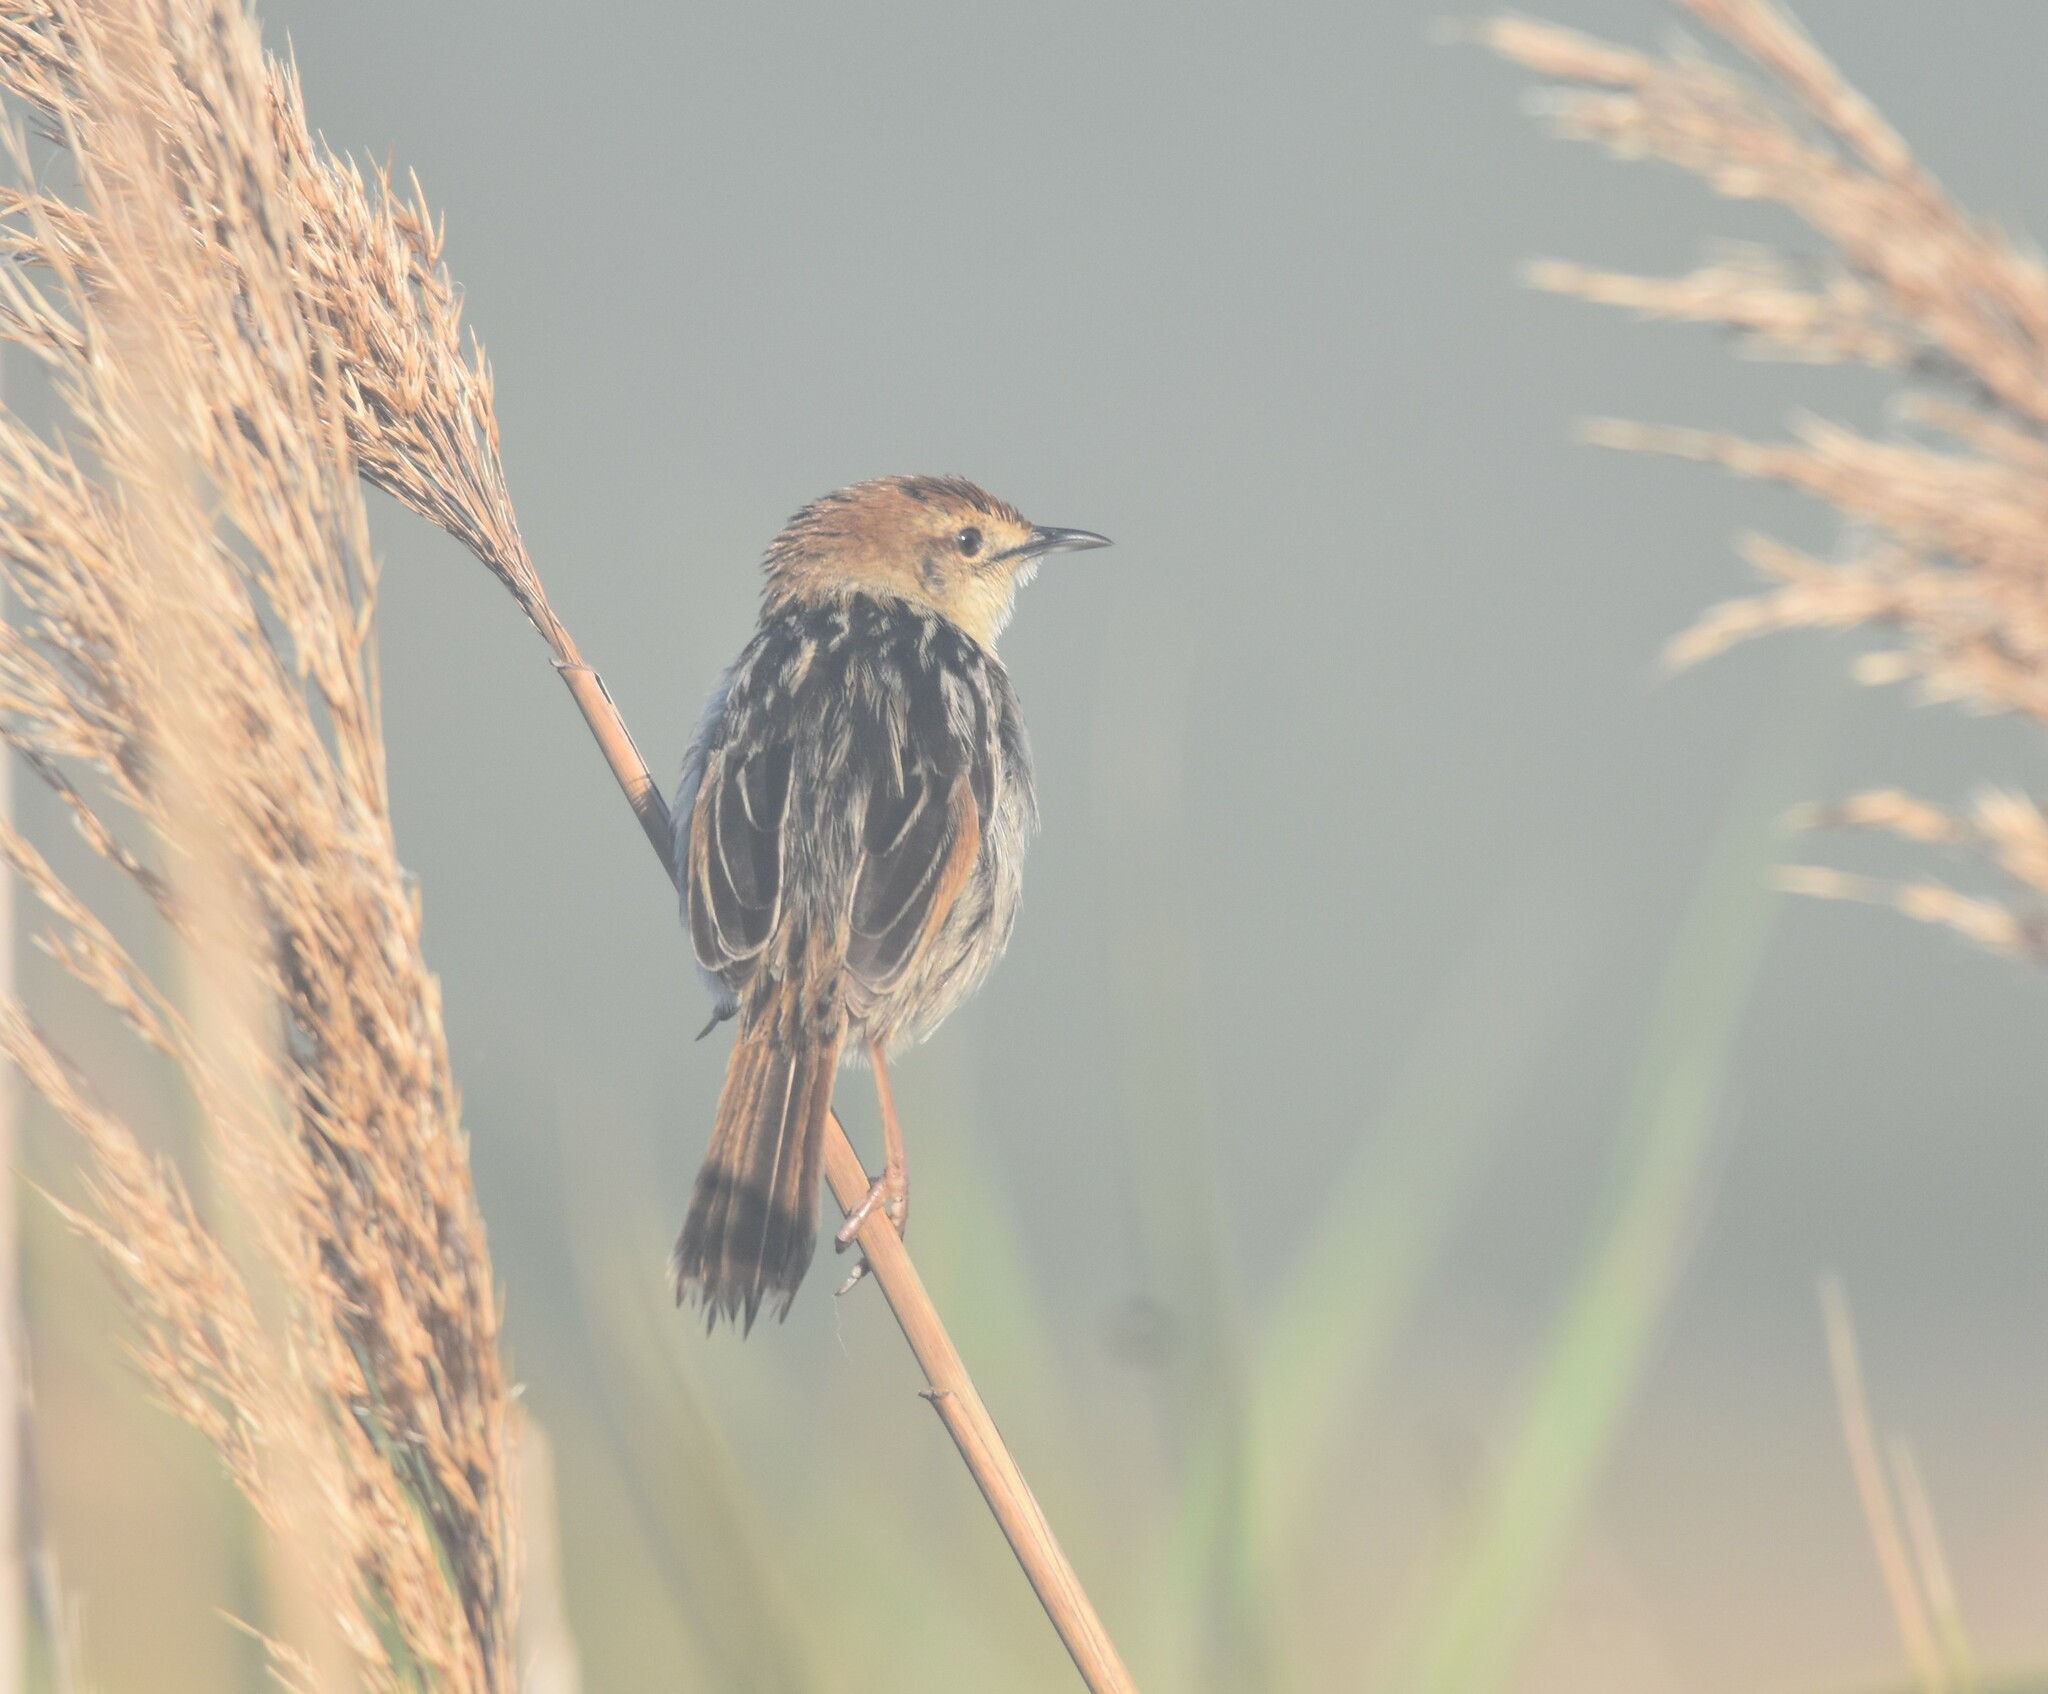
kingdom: Animalia
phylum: Chordata
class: Aves
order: Passeriformes
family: Cisticolidae
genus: Cisticola
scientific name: Cisticola tinniens
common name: Levaillant's cisticola
